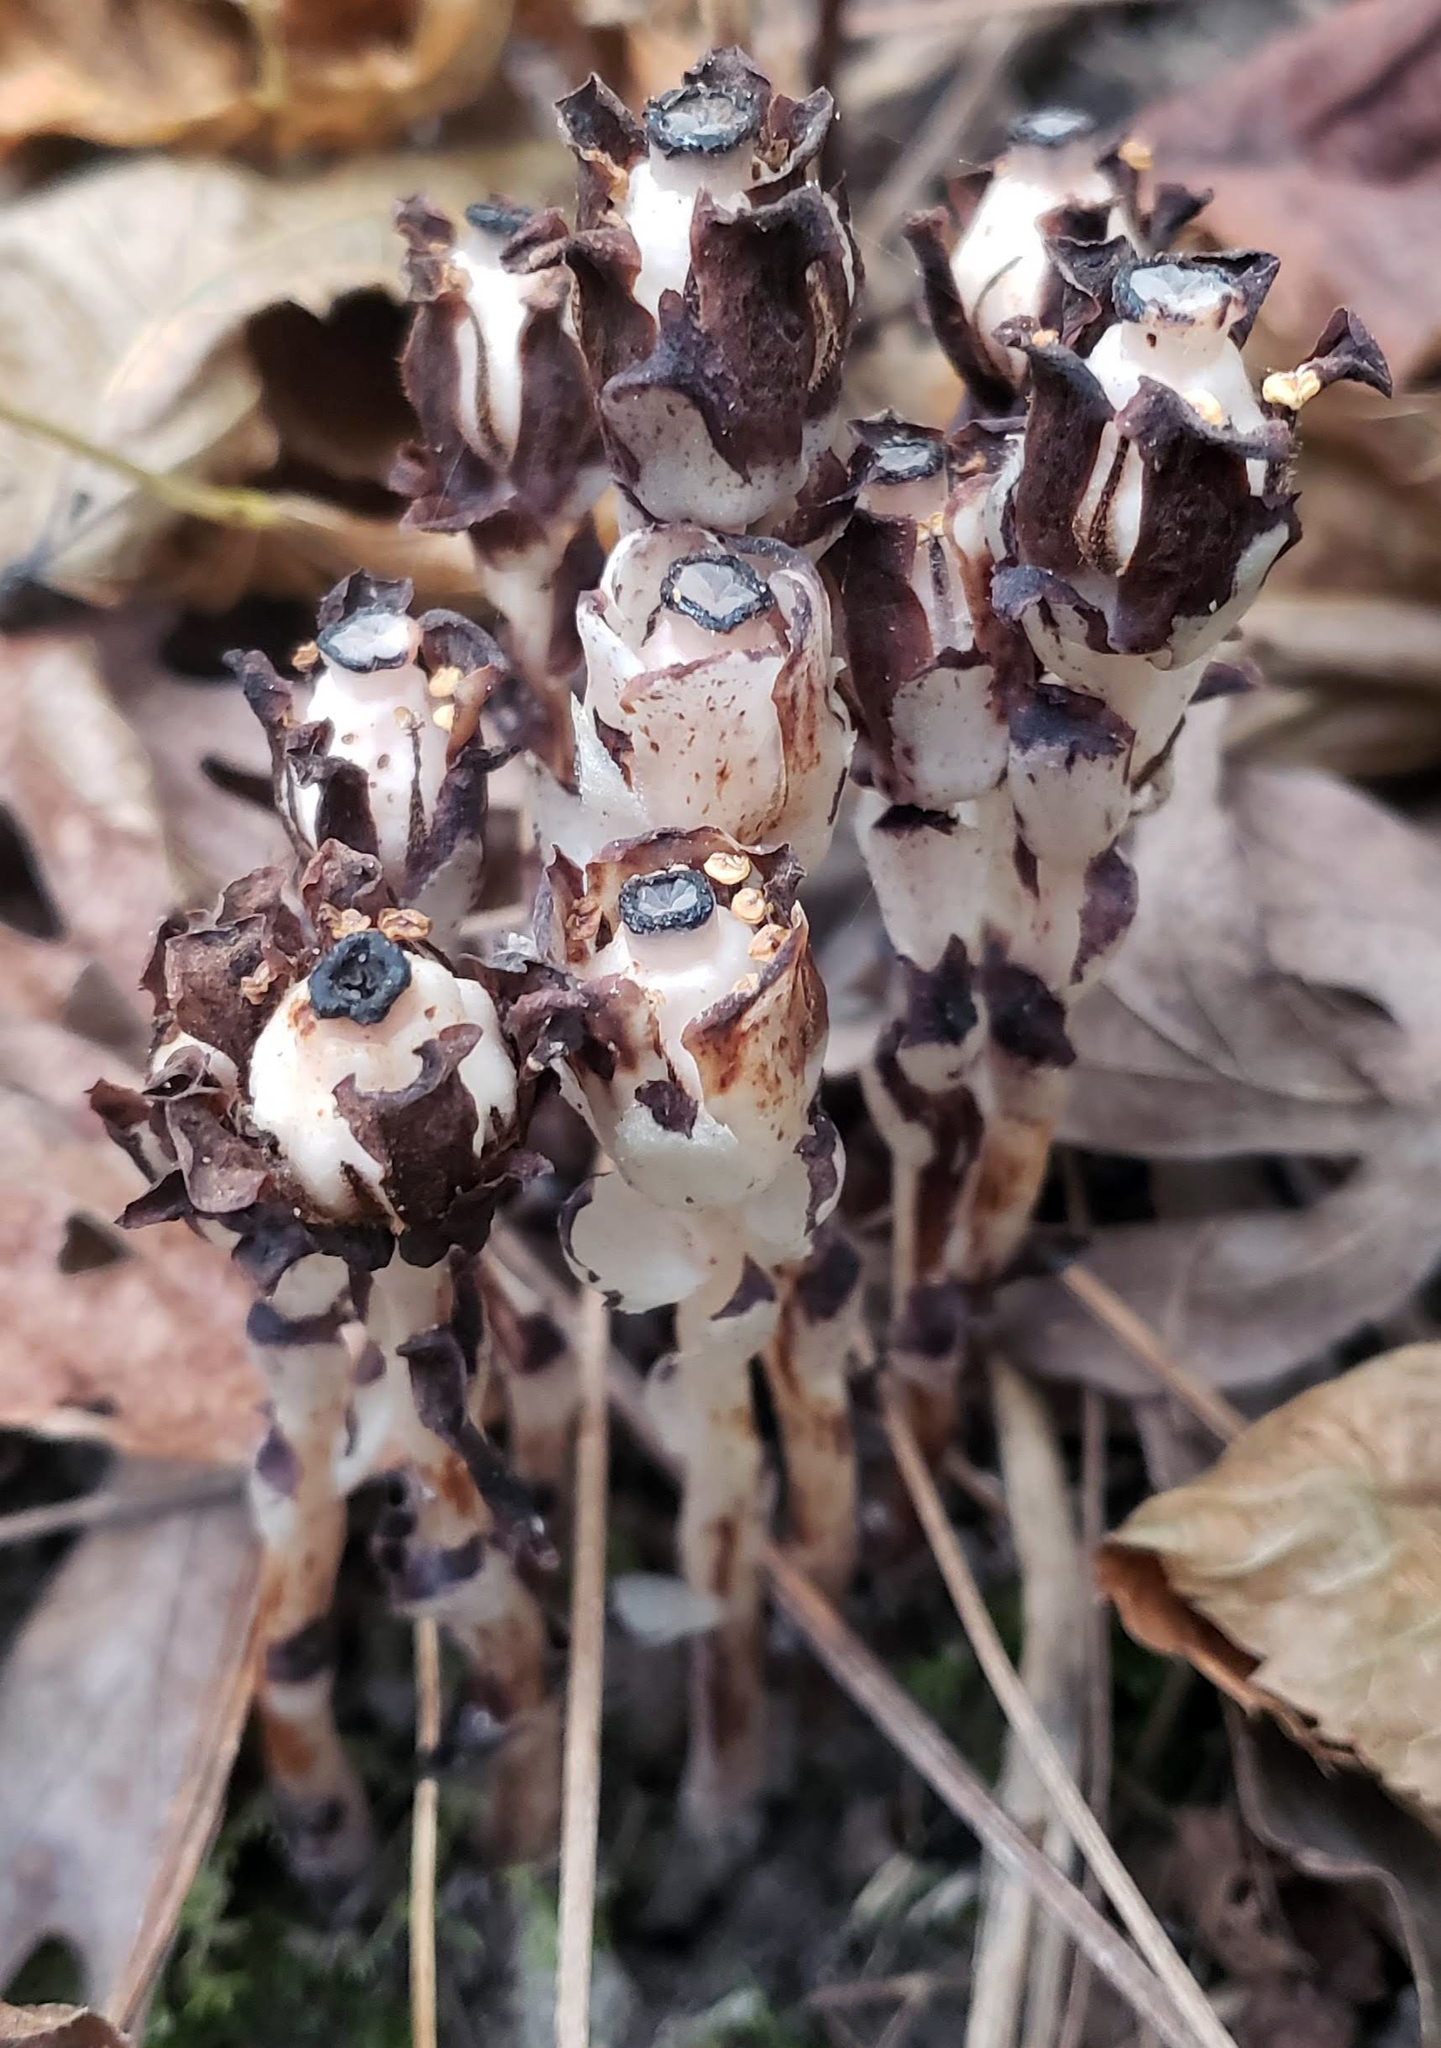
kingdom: Plantae
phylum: Tracheophyta
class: Magnoliopsida
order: Ericales
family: Ericaceae
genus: Monotropa
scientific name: Monotropa uniflora
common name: Convulsion root
